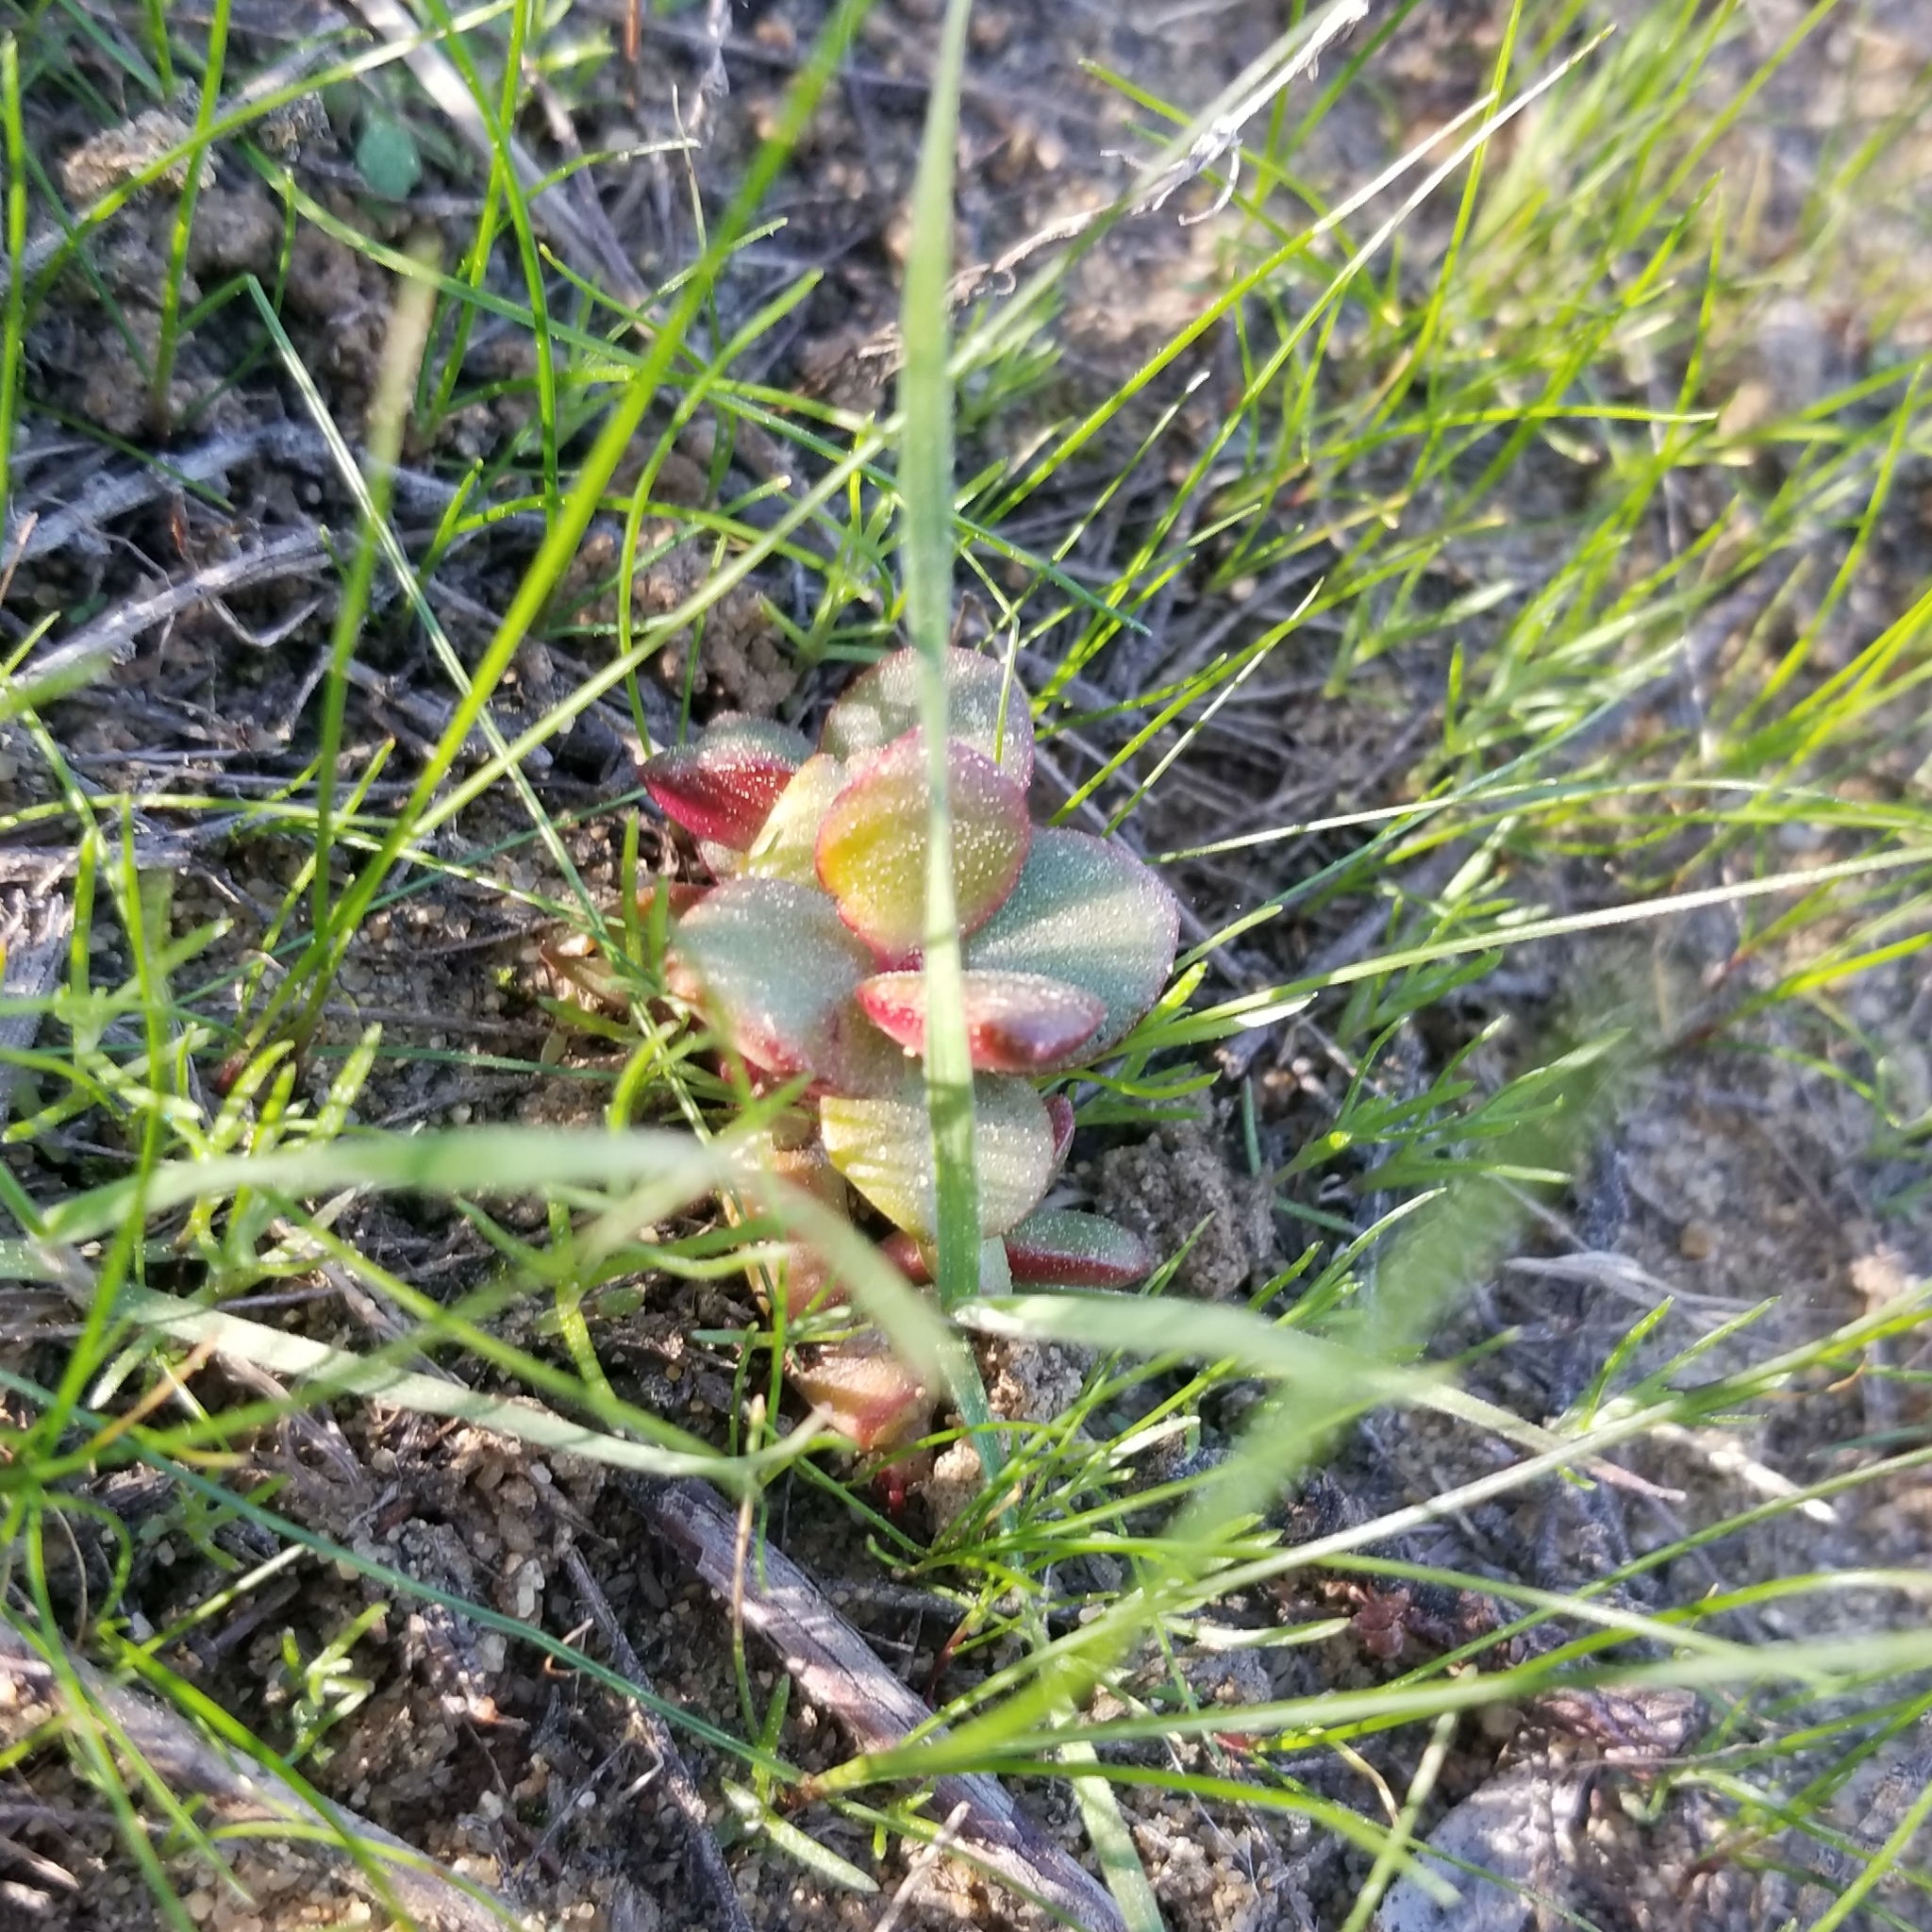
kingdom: Plantae
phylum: Tracheophyta
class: Magnoliopsida
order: Saxifragales
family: Crassulaceae
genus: Crassula
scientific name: Crassula ovata
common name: Jade plant
